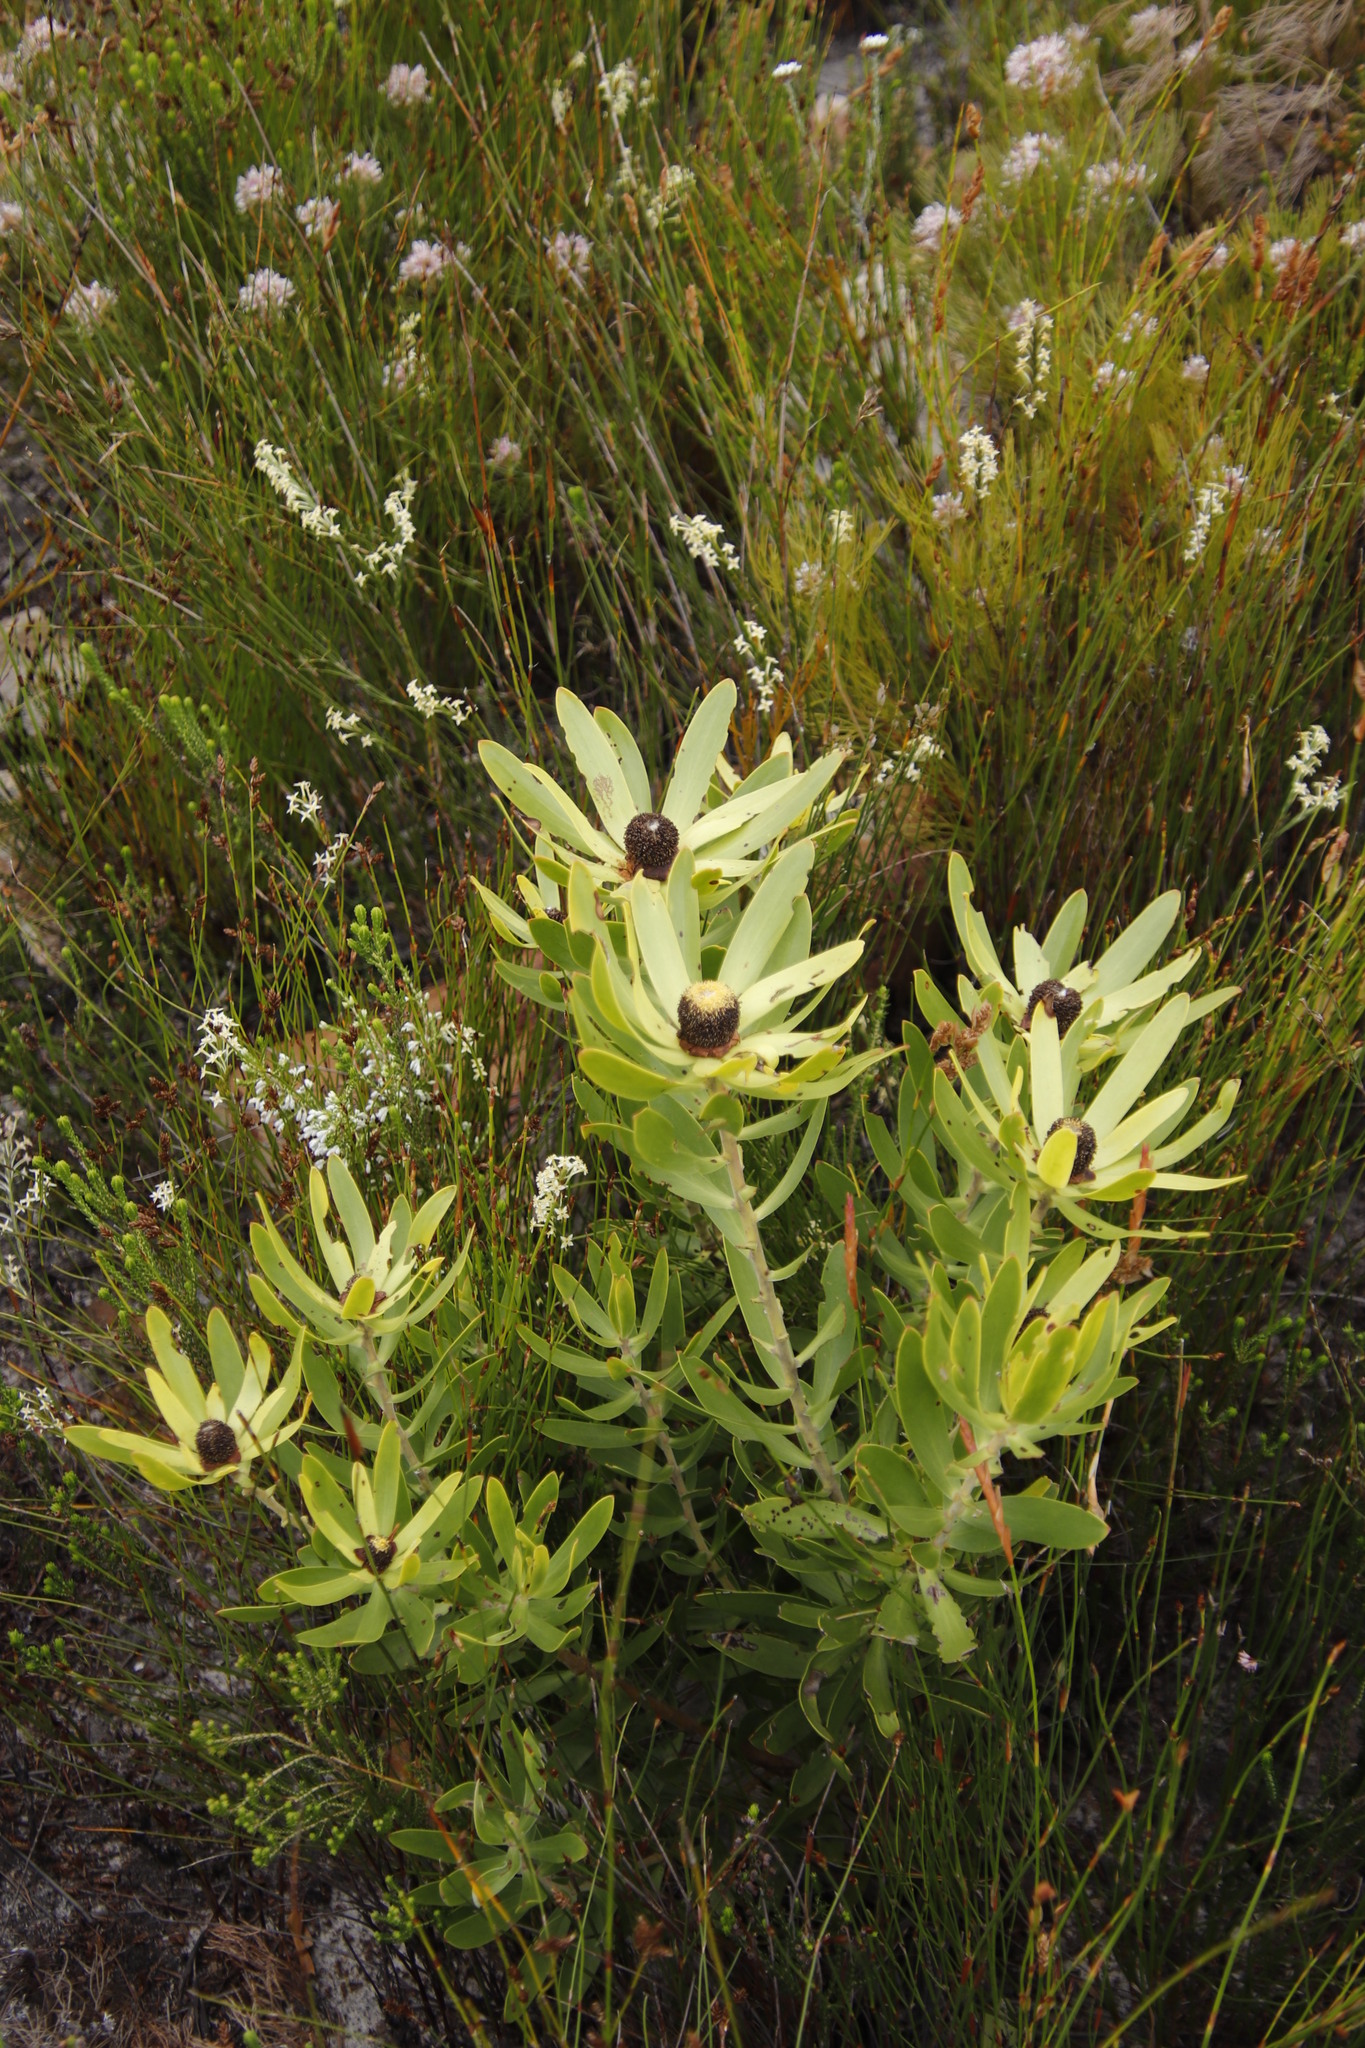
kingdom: Plantae
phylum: Tracheophyta
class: Magnoliopsida
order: Proteales
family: Proteaceae
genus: Leucadendron
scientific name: Leucadendron gandogeri
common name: Broad-leaf conebush
